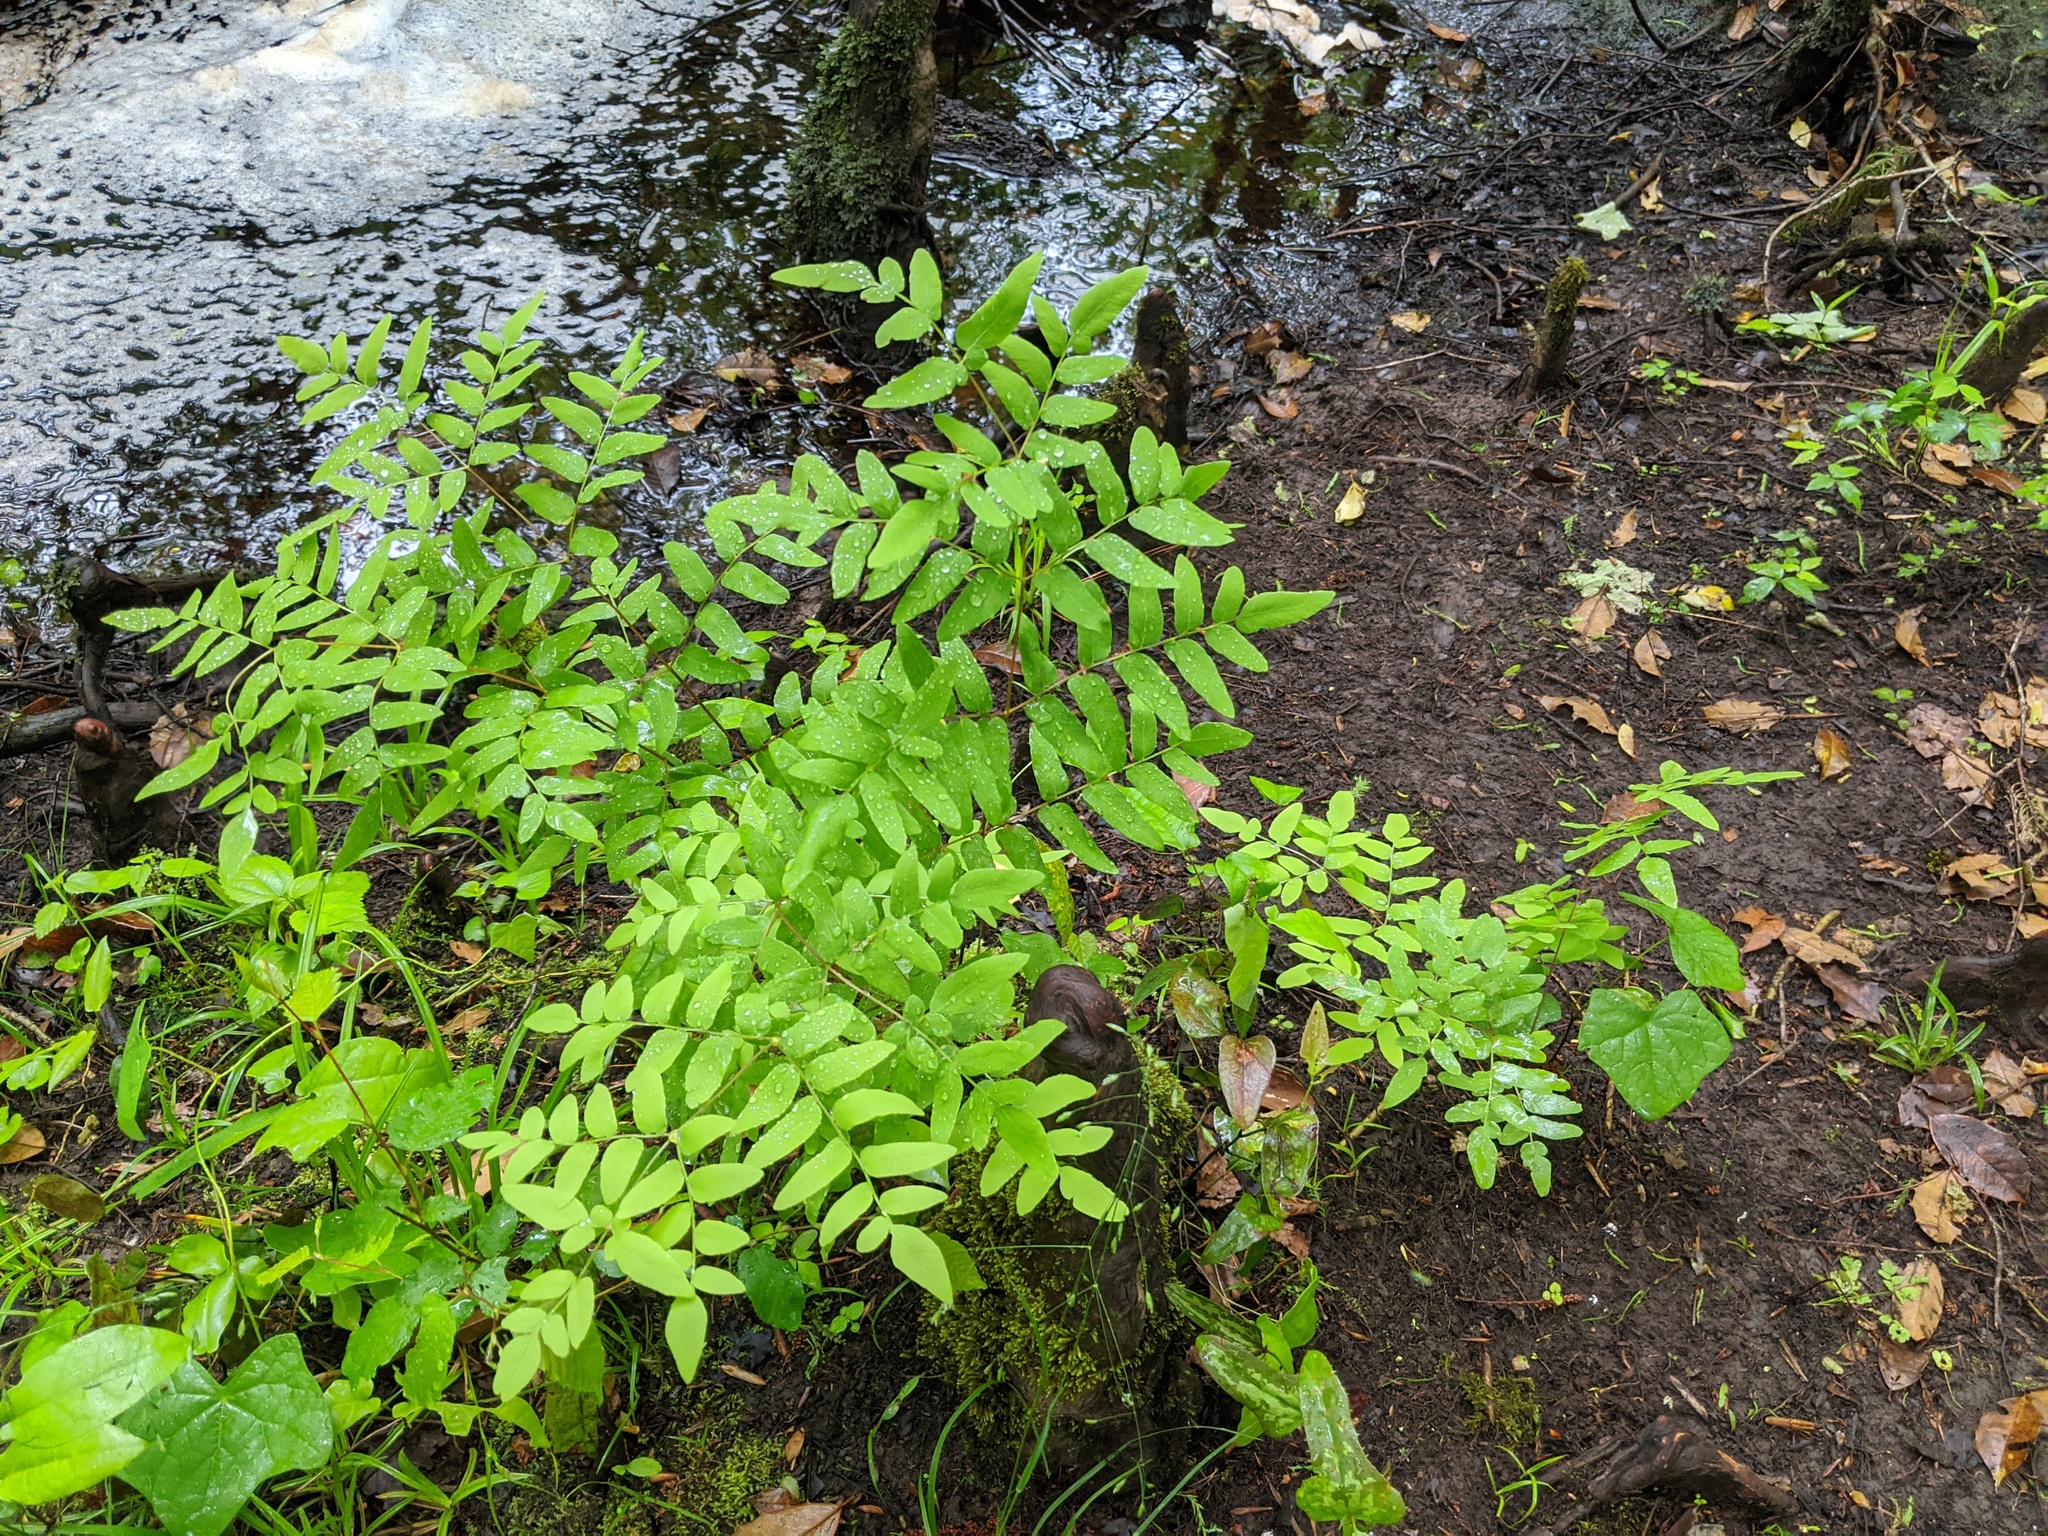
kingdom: Plantae
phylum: Tracheophyta
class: Polypodiopsida
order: Osmundales
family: Osmundaceae
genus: Osmunda
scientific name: Osmunda spectabilis
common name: American royal fern
